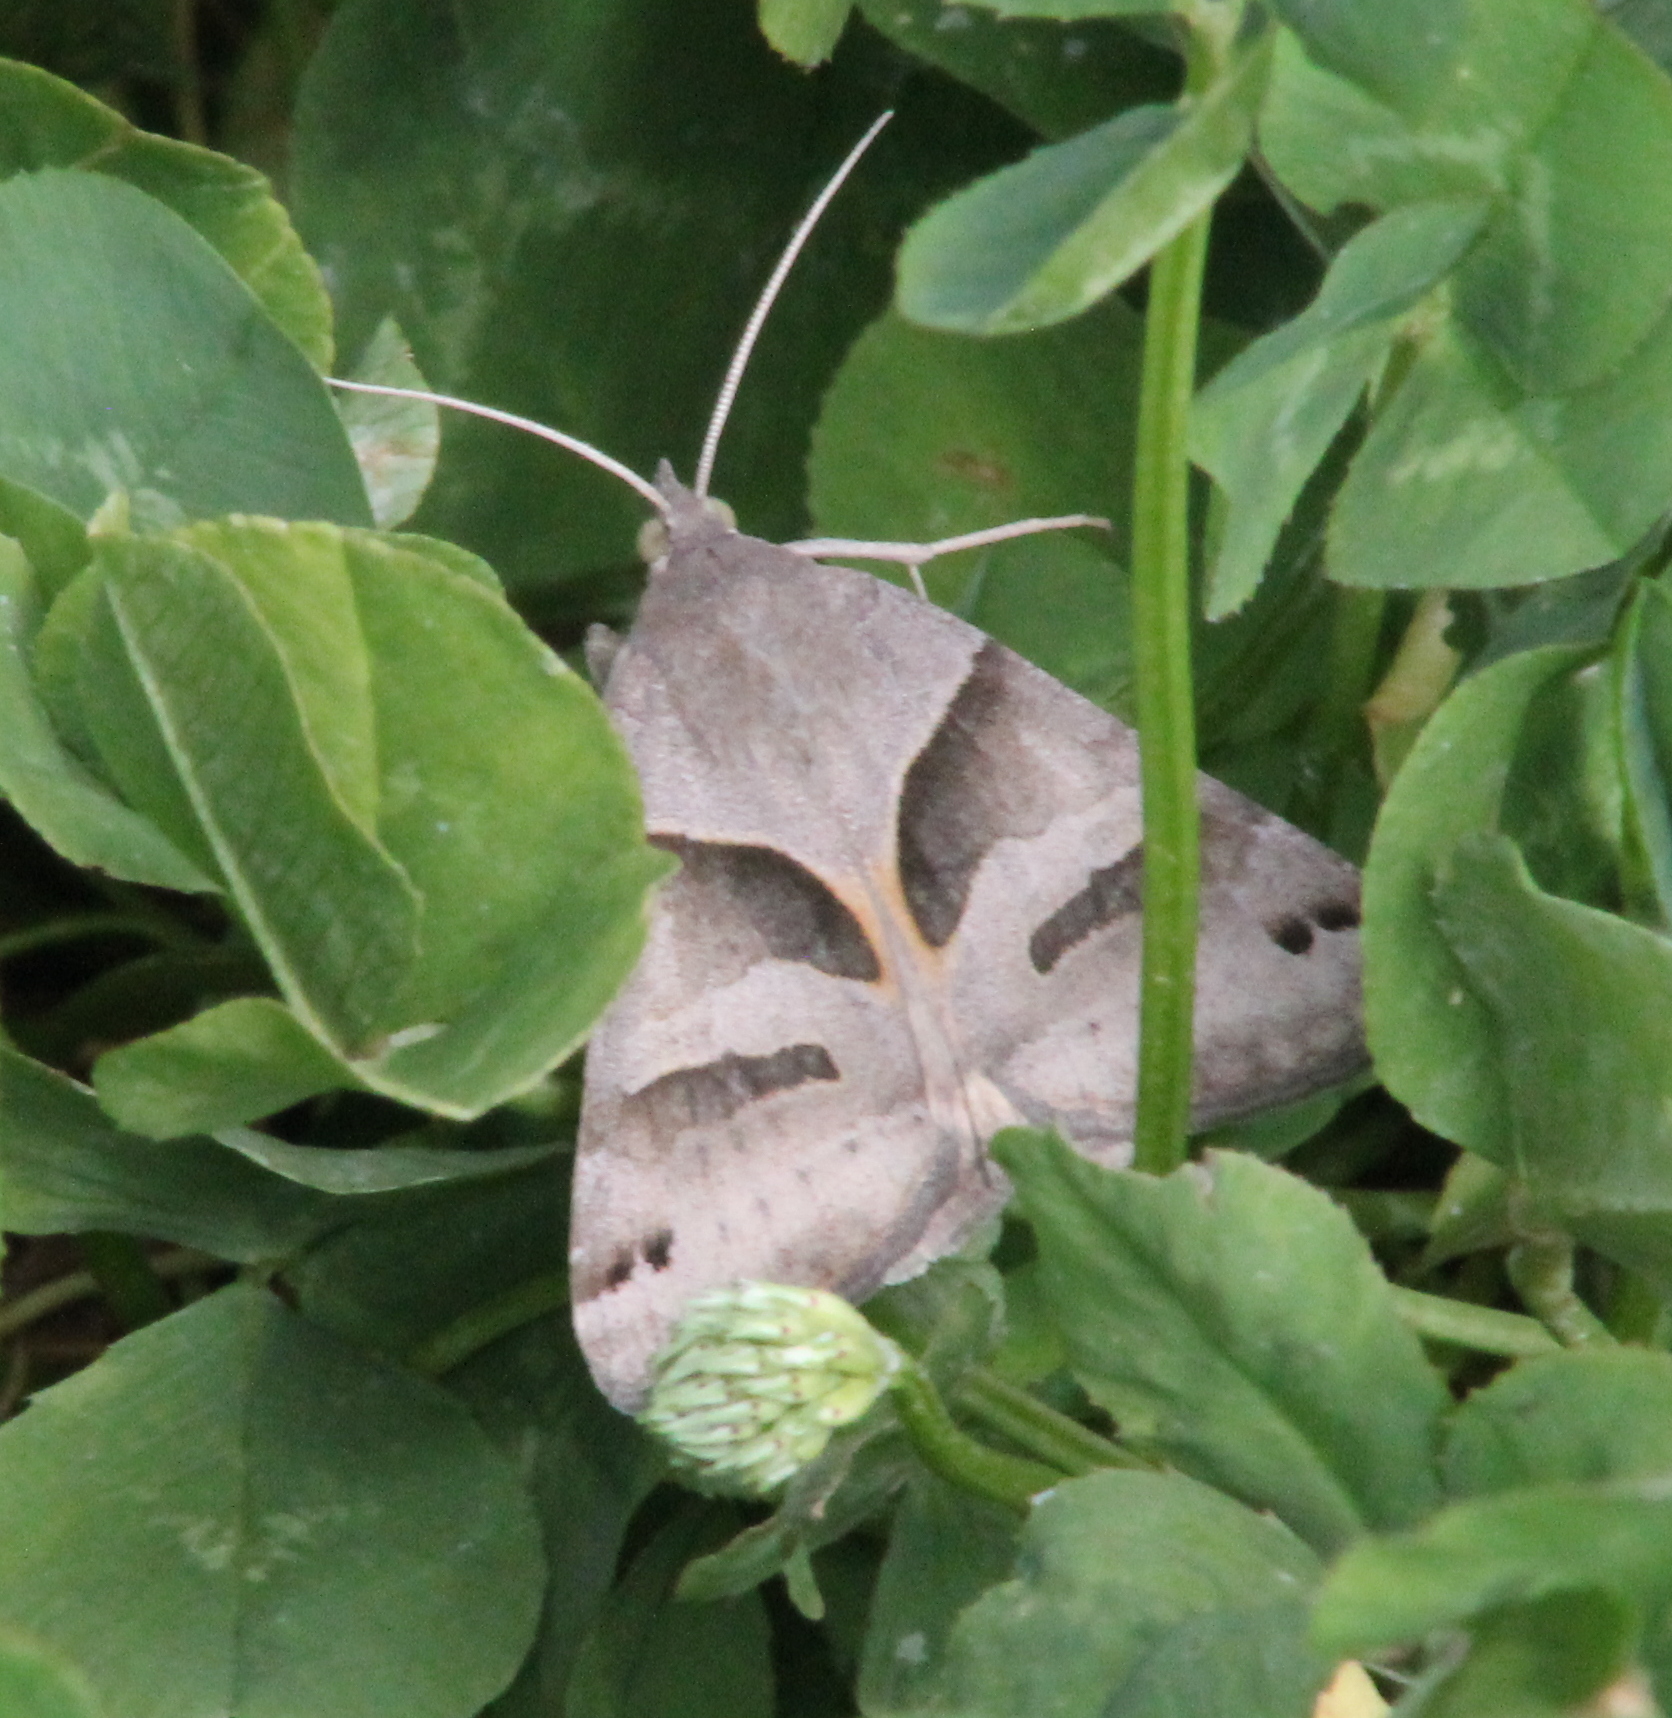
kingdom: Animalia
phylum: Arthropoda
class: Insecta
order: Lepidoptera
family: Erebidae
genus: Caenurgina
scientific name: Caenurgina erechtea
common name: Forage looper moth
